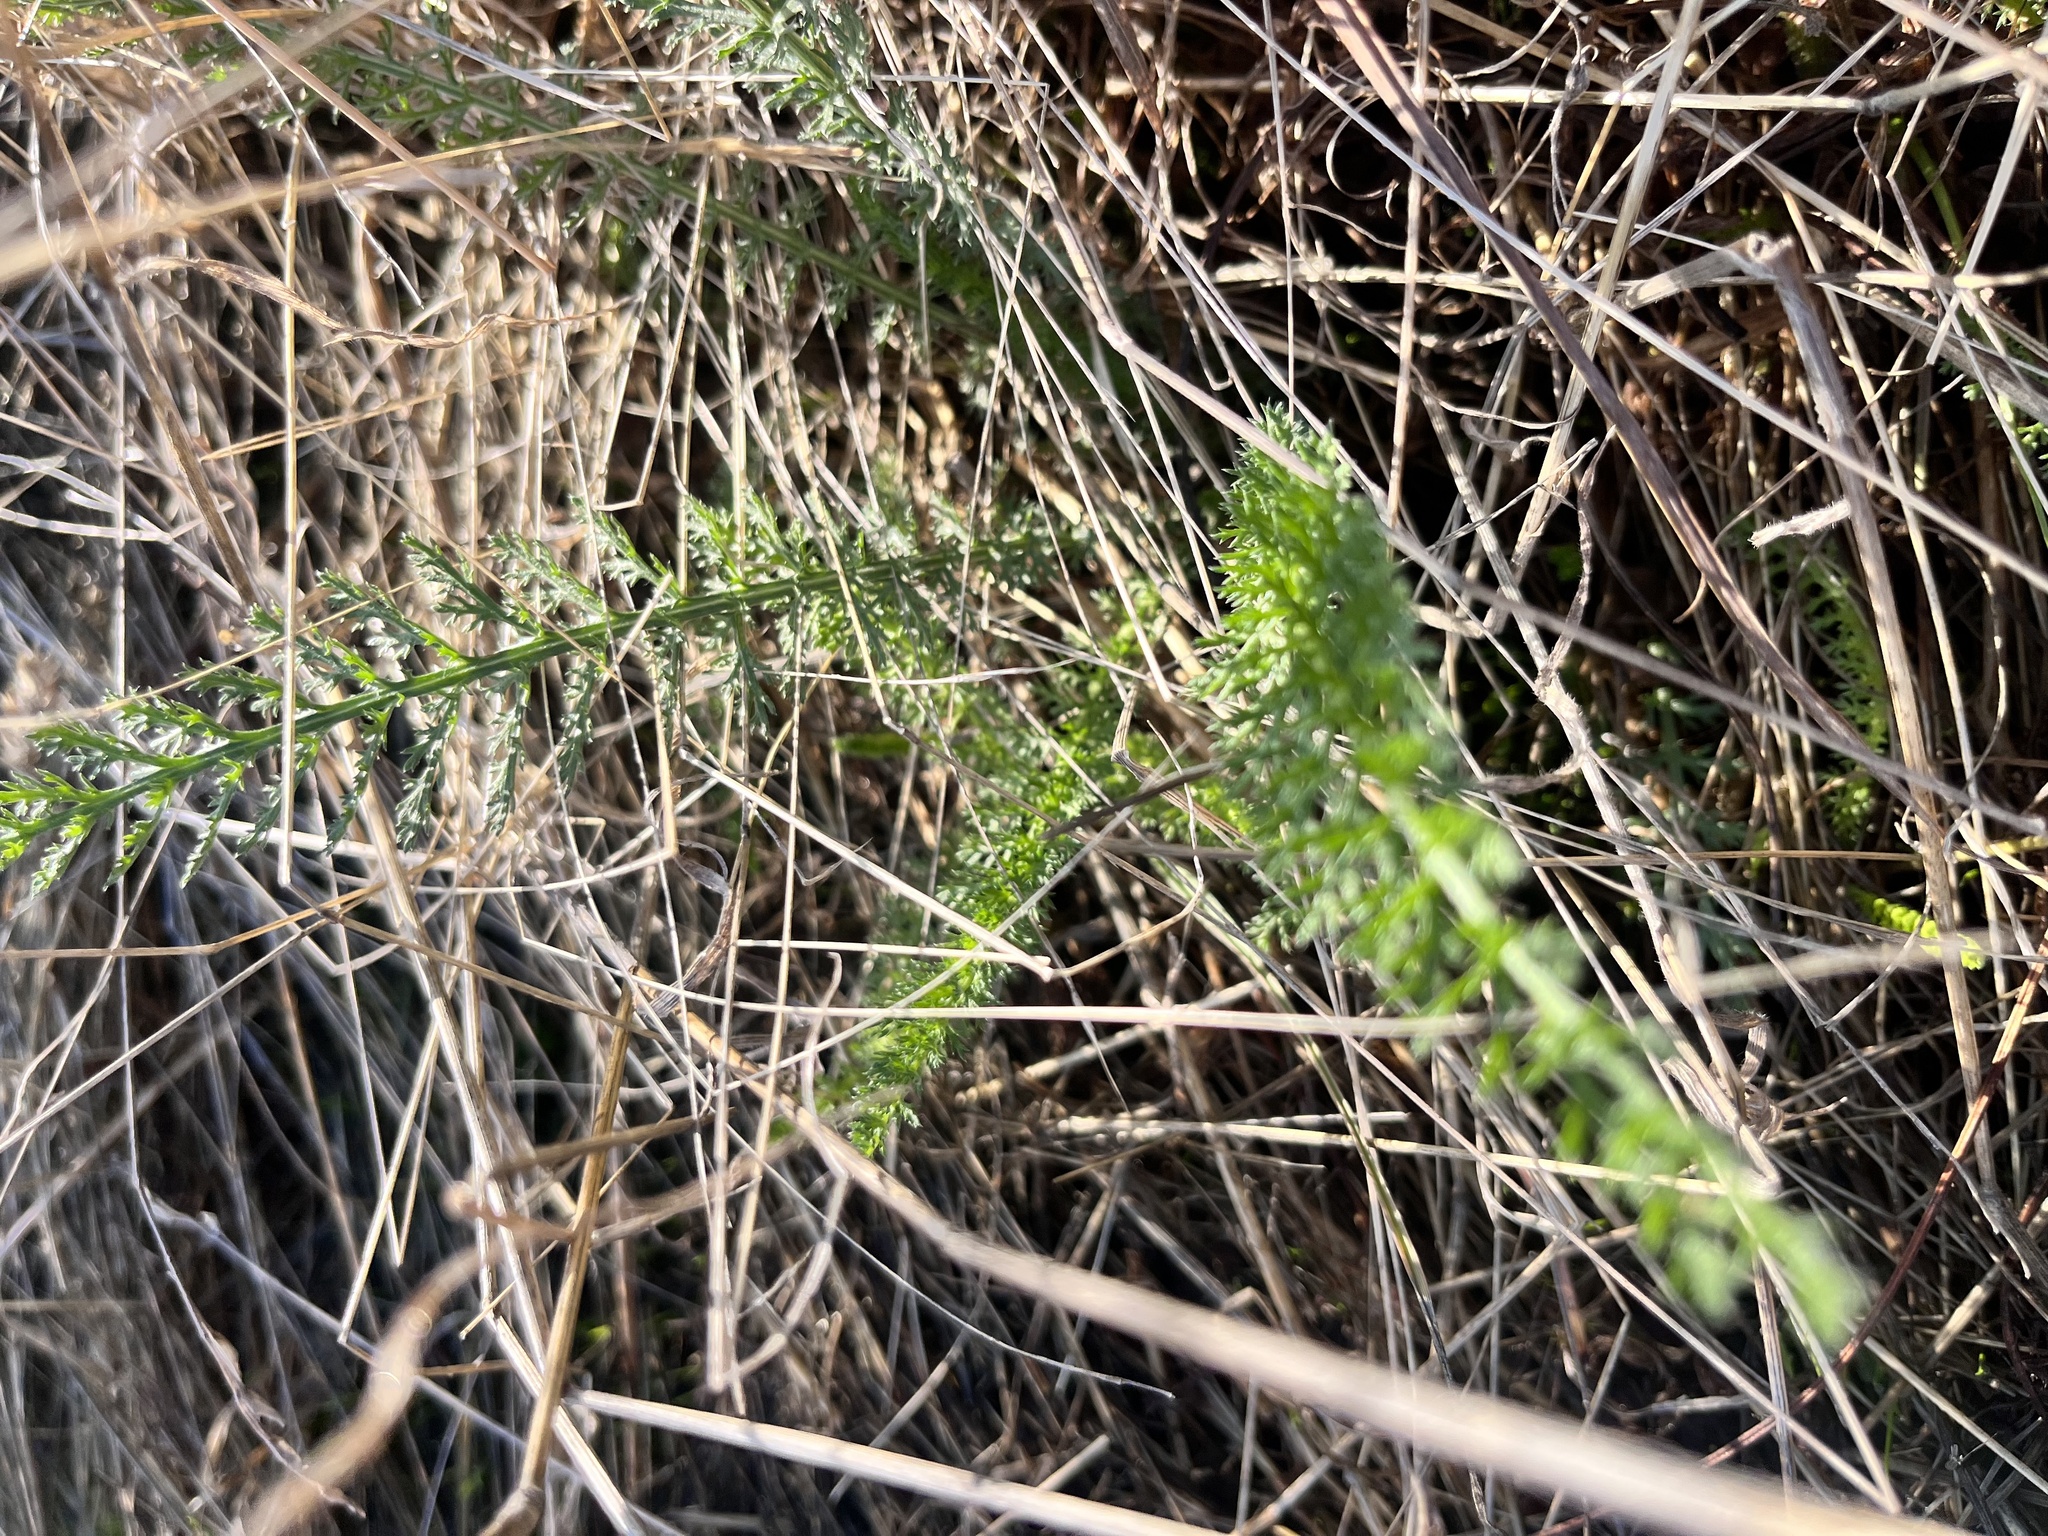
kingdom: Plantae
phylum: Tracheophyta
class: Magnoliopsida
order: Asterales
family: Asteraceae
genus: Achillea
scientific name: Achillea millefolium
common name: Yarrow
